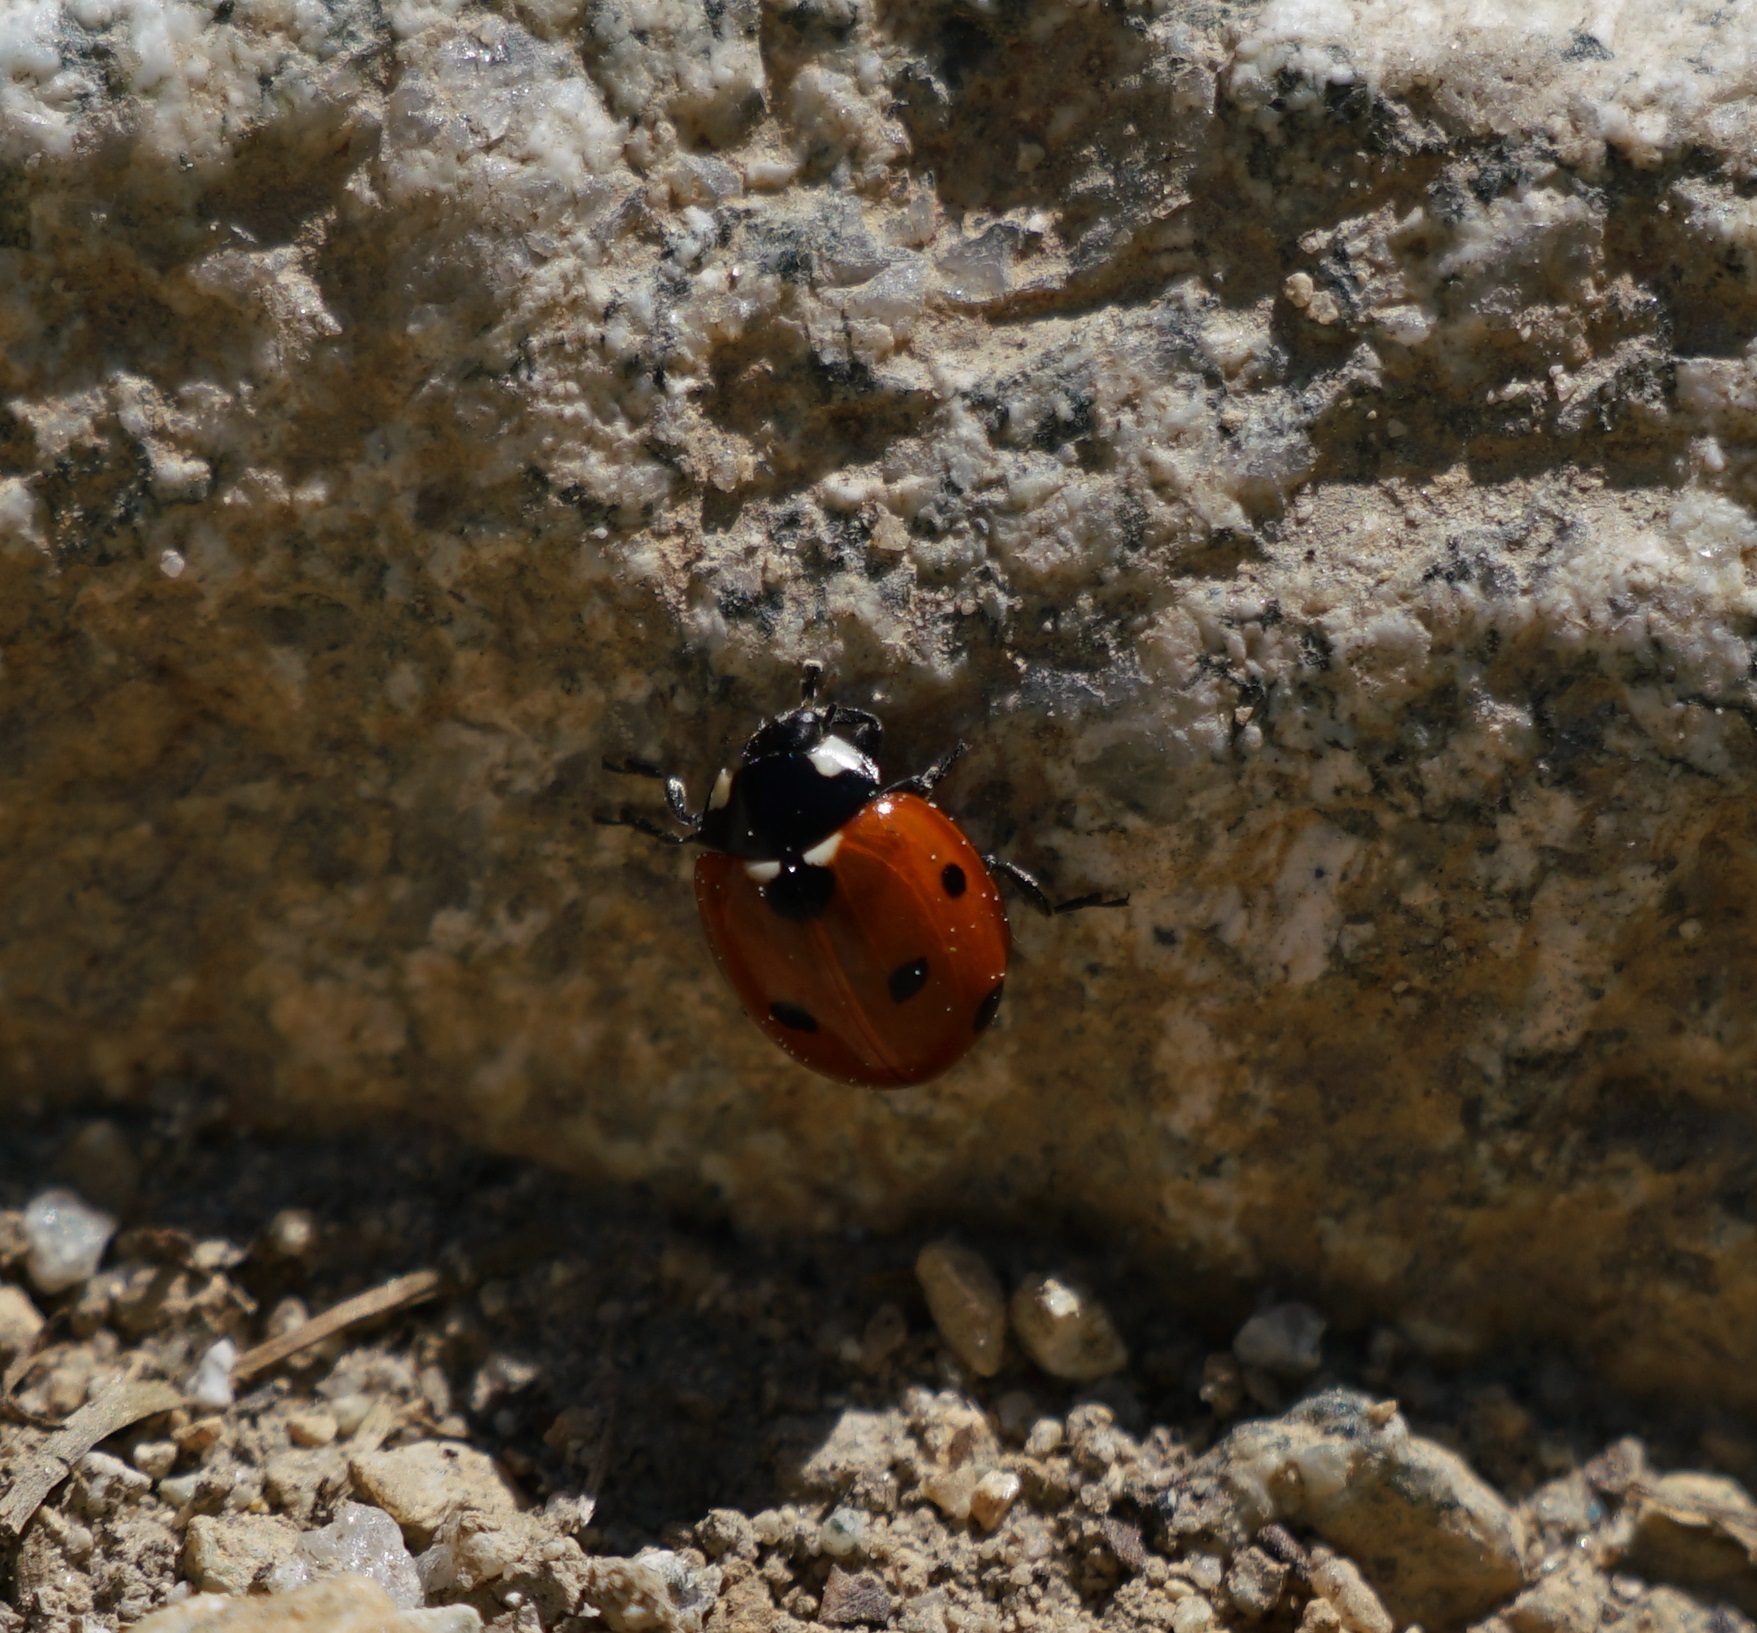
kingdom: Animalia
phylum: Arthropoda
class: Insecta
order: Coleoptera
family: Coccinellidae
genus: Coccinella
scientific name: Coccinella septempunctata
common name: Sevenspotted lady beetle
